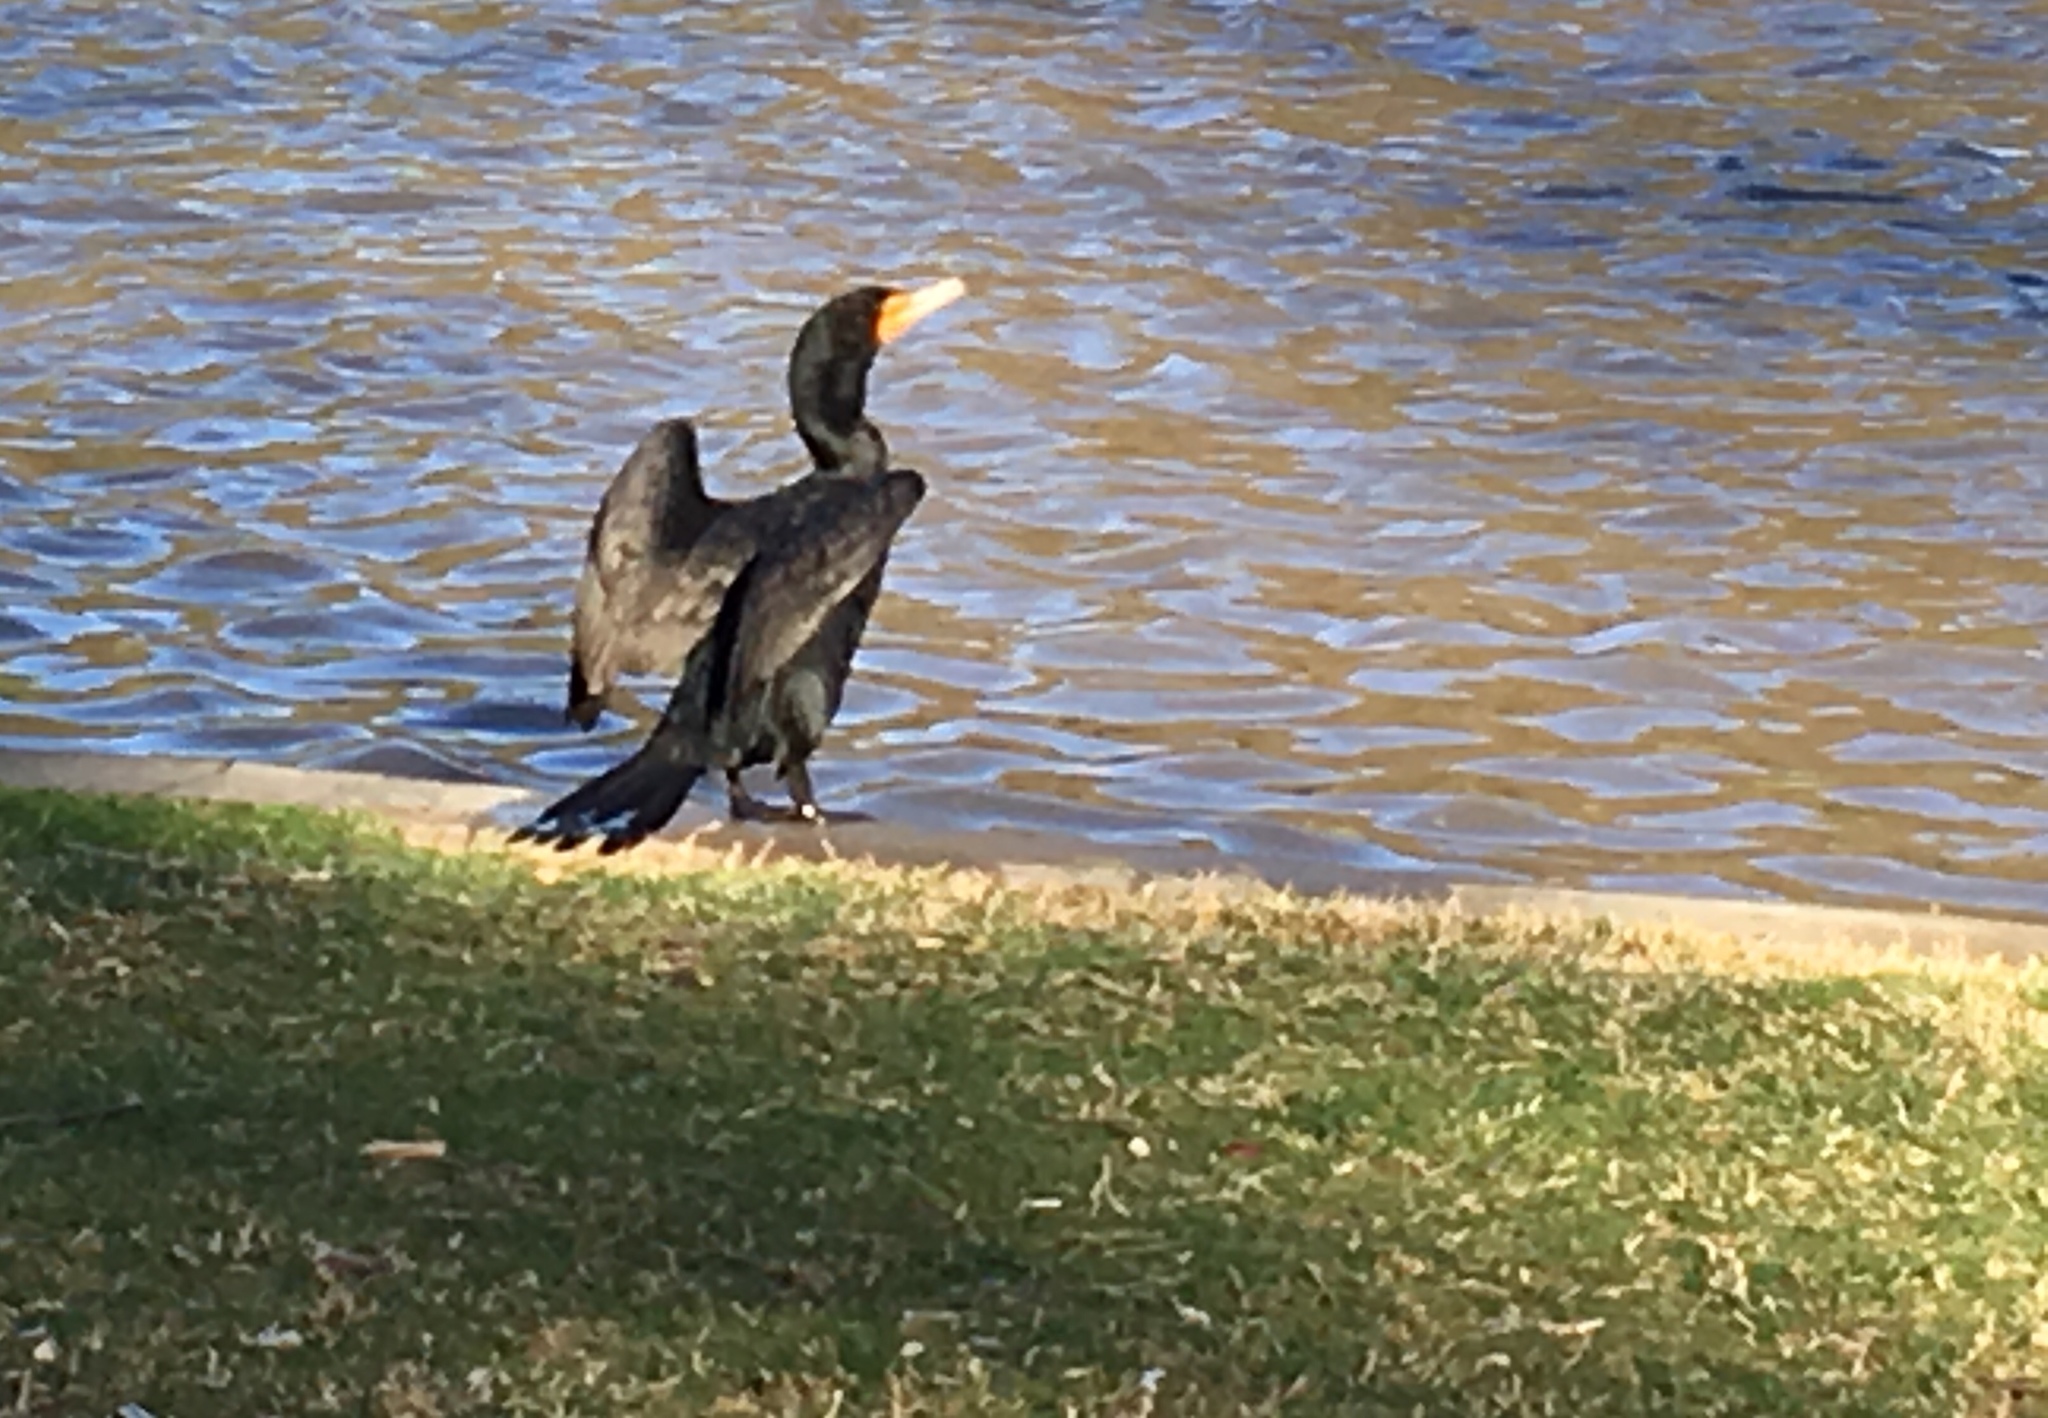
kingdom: Animalia
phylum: Chordata
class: Aves
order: Suliformes
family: Phalacrocoracidae
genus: Phalacrocorax
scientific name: Phalacrocorax auritus
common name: Double-crested cormorant
